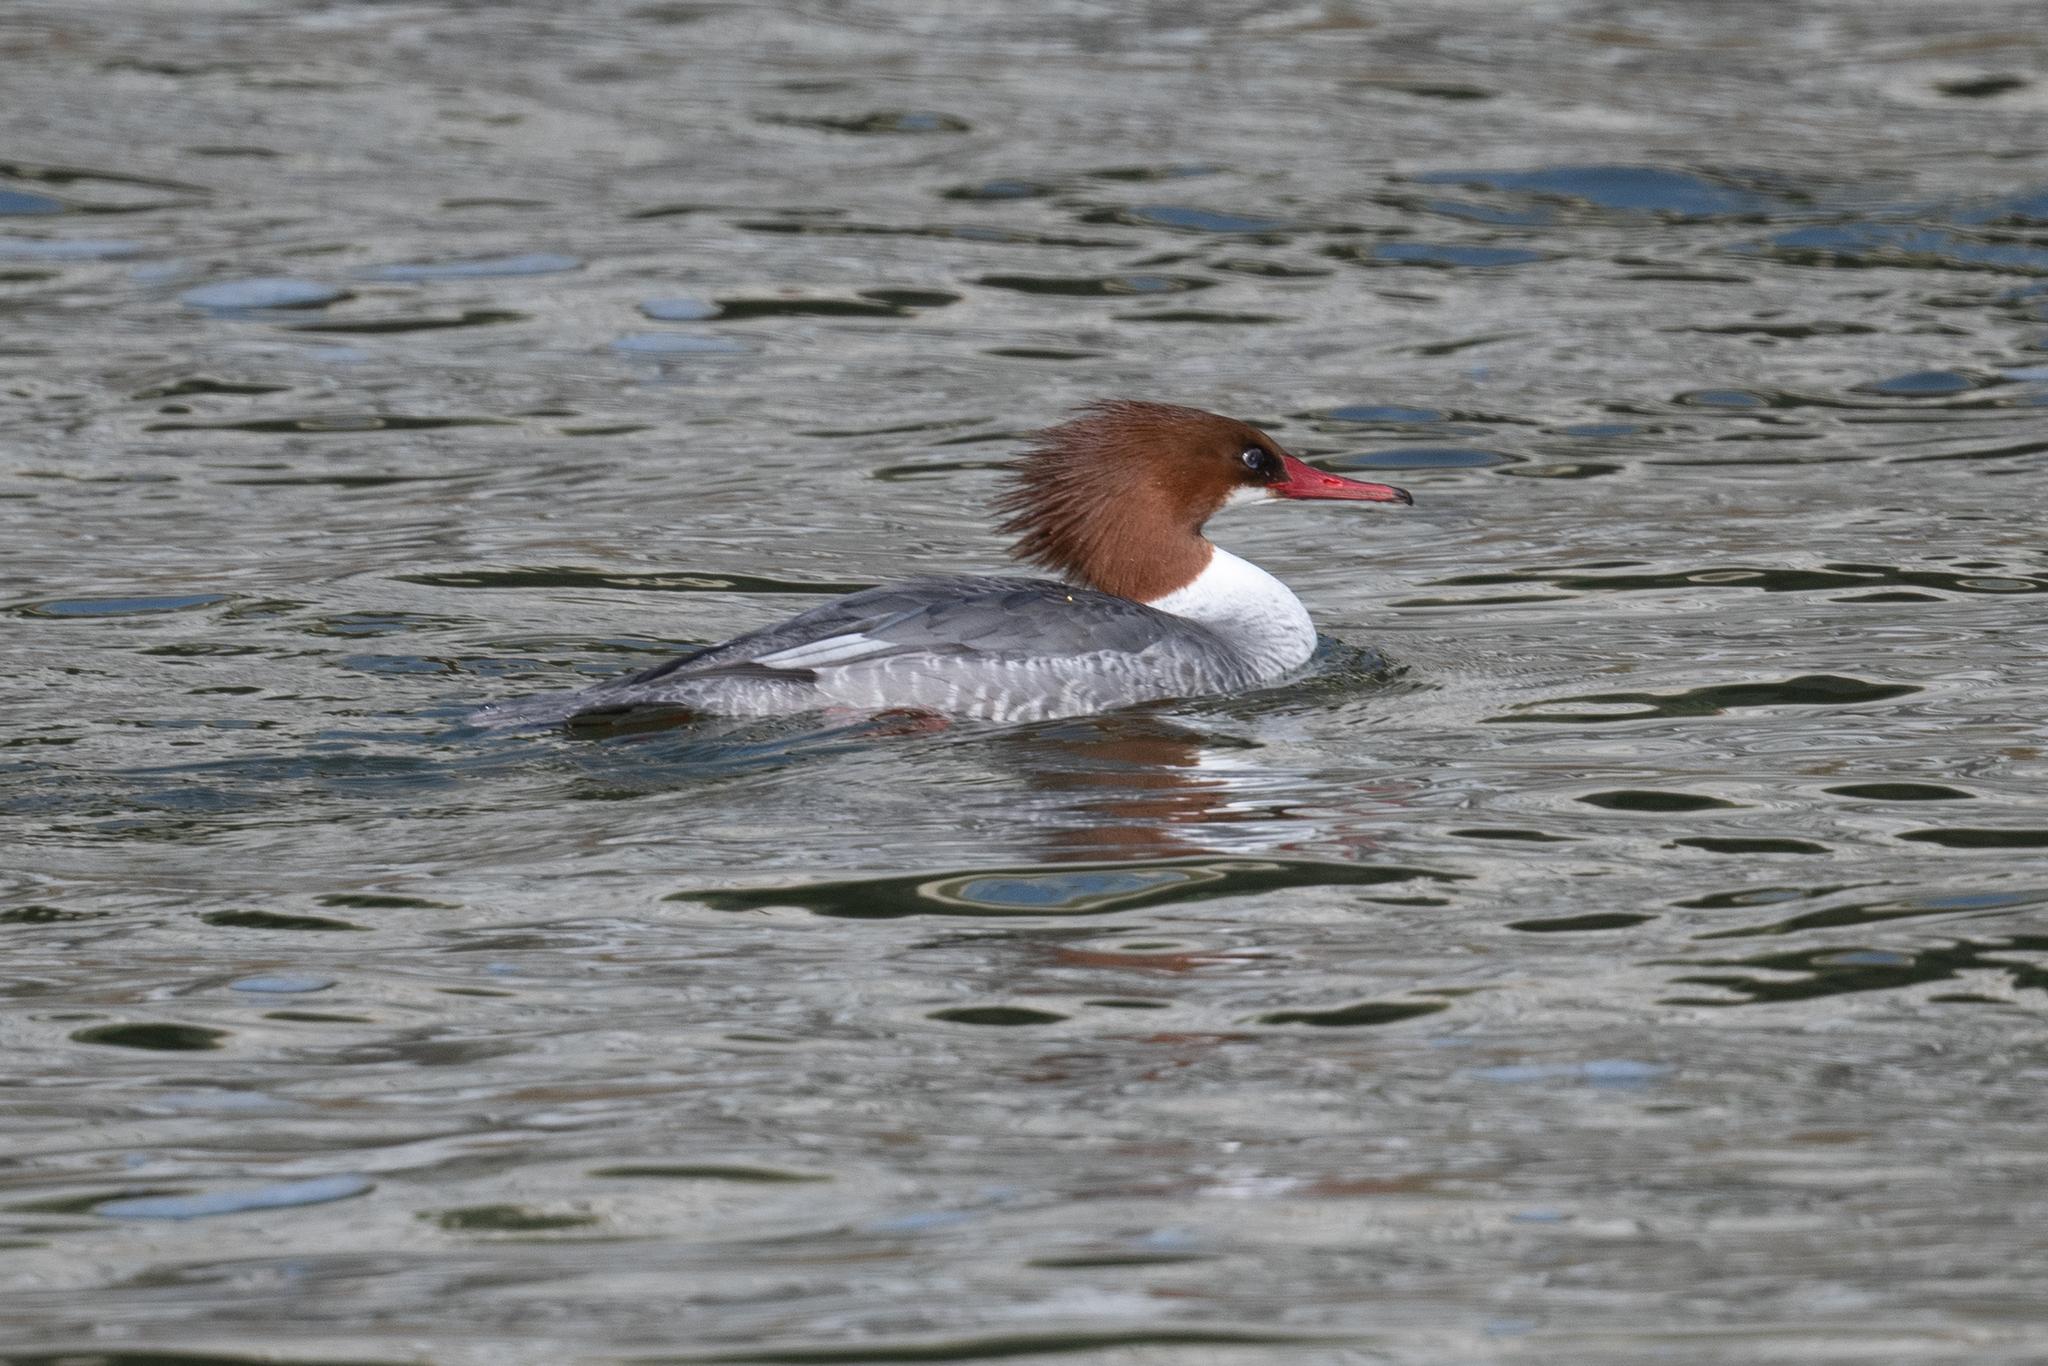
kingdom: Animalia
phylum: Chordata
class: Aves
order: Anseriformes
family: Anatidae
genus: Mergus
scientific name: Mergus merganser
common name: Common merganser
